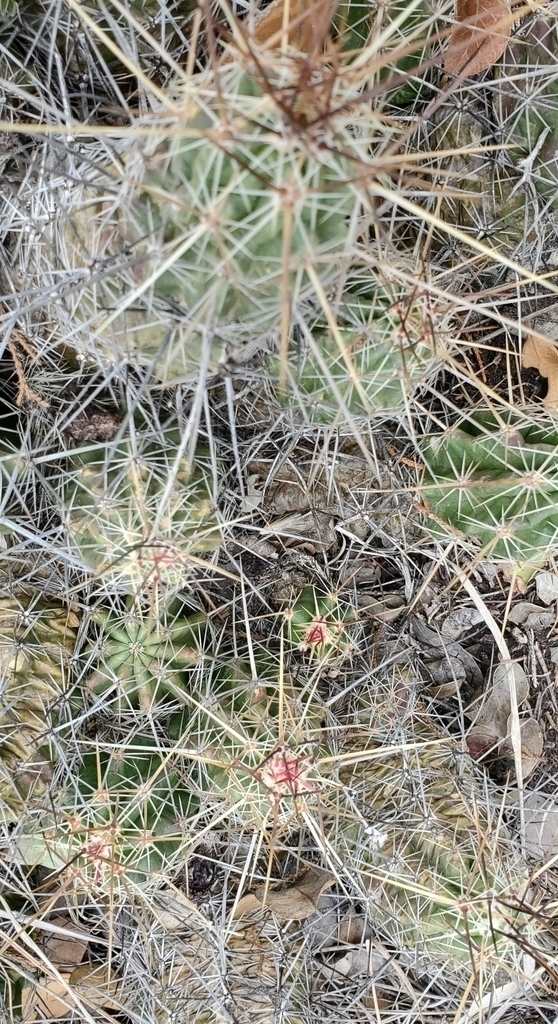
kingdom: Plantae
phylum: Tracheophyta
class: Magnoliopsida
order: Caryophyllales
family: Cactaceae
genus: Echinocereus
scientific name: Echinocereus enneacanthus
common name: Pitaya
